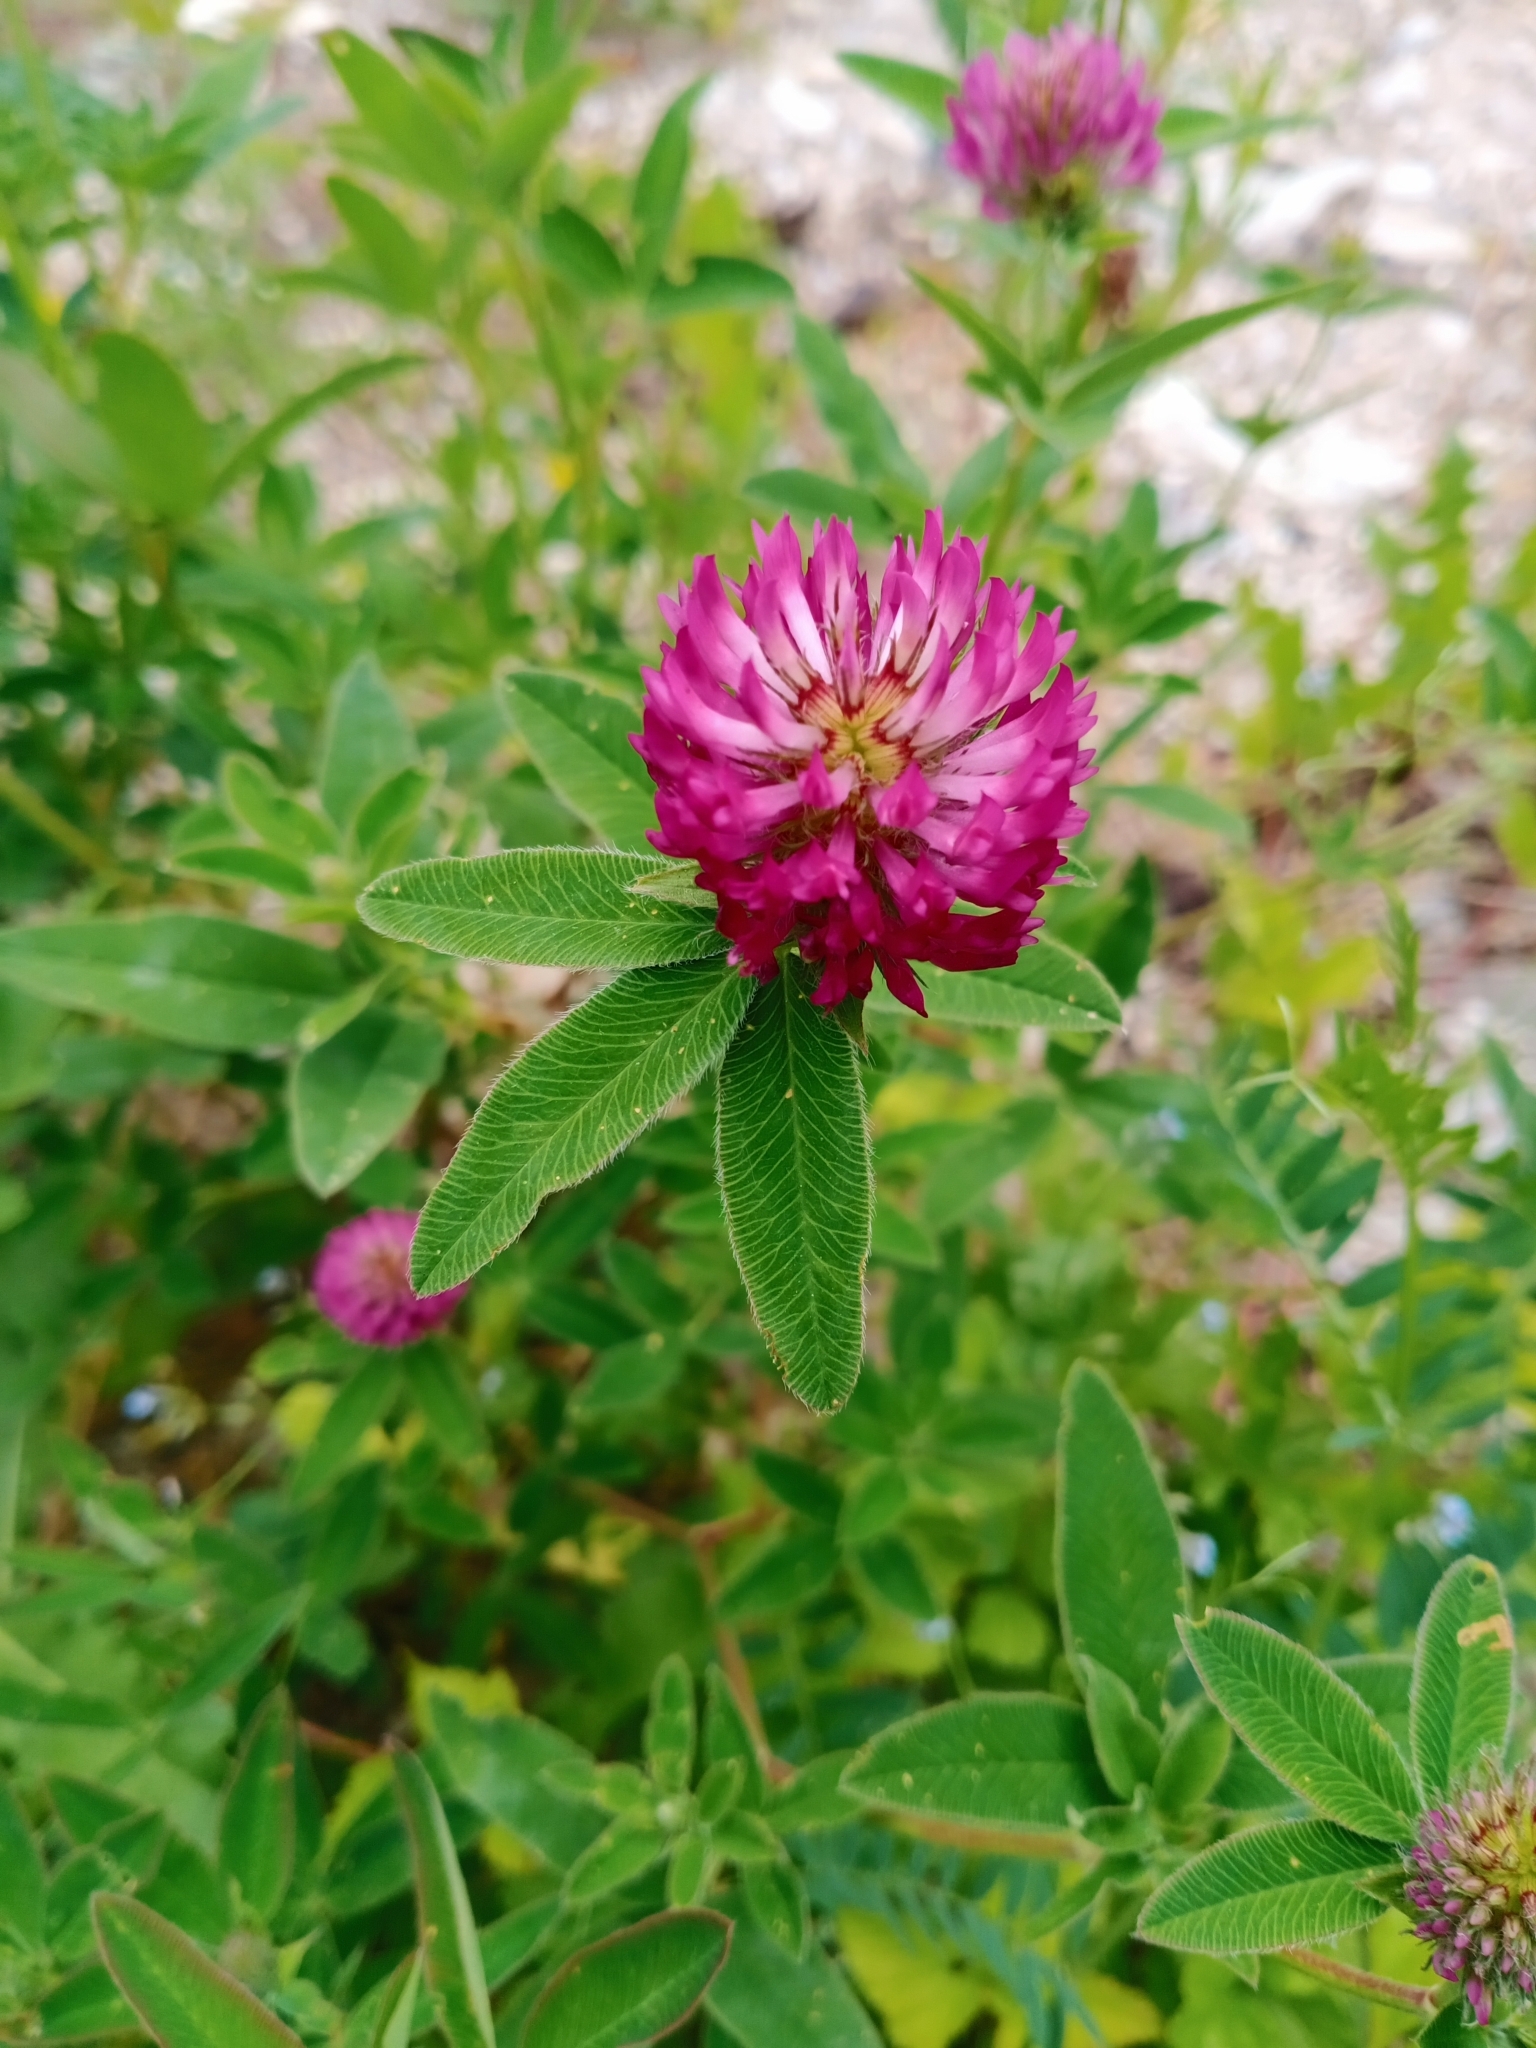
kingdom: Plantae
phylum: Tracheophyta
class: Magnoliopsida
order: Fabales
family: Fabaceae
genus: Trifolium
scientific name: Trifolium medium
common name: Zigzag clover
